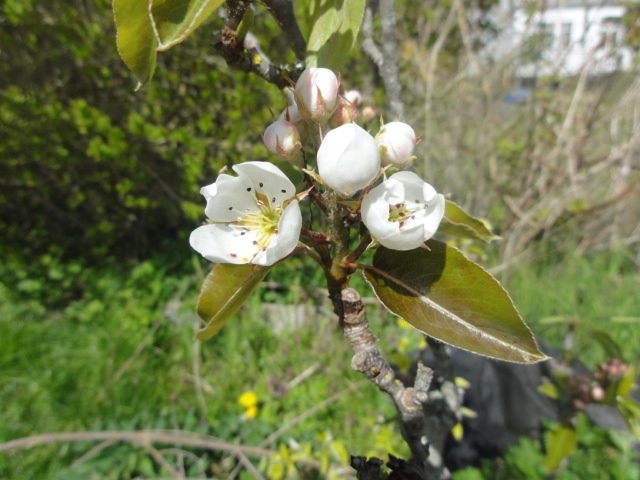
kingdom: Plantae
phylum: Tracheophyta
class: Magnoliopsida
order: Rosales
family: Rosaceae
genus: Pyrus
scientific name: Pyrus communis
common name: Pear
